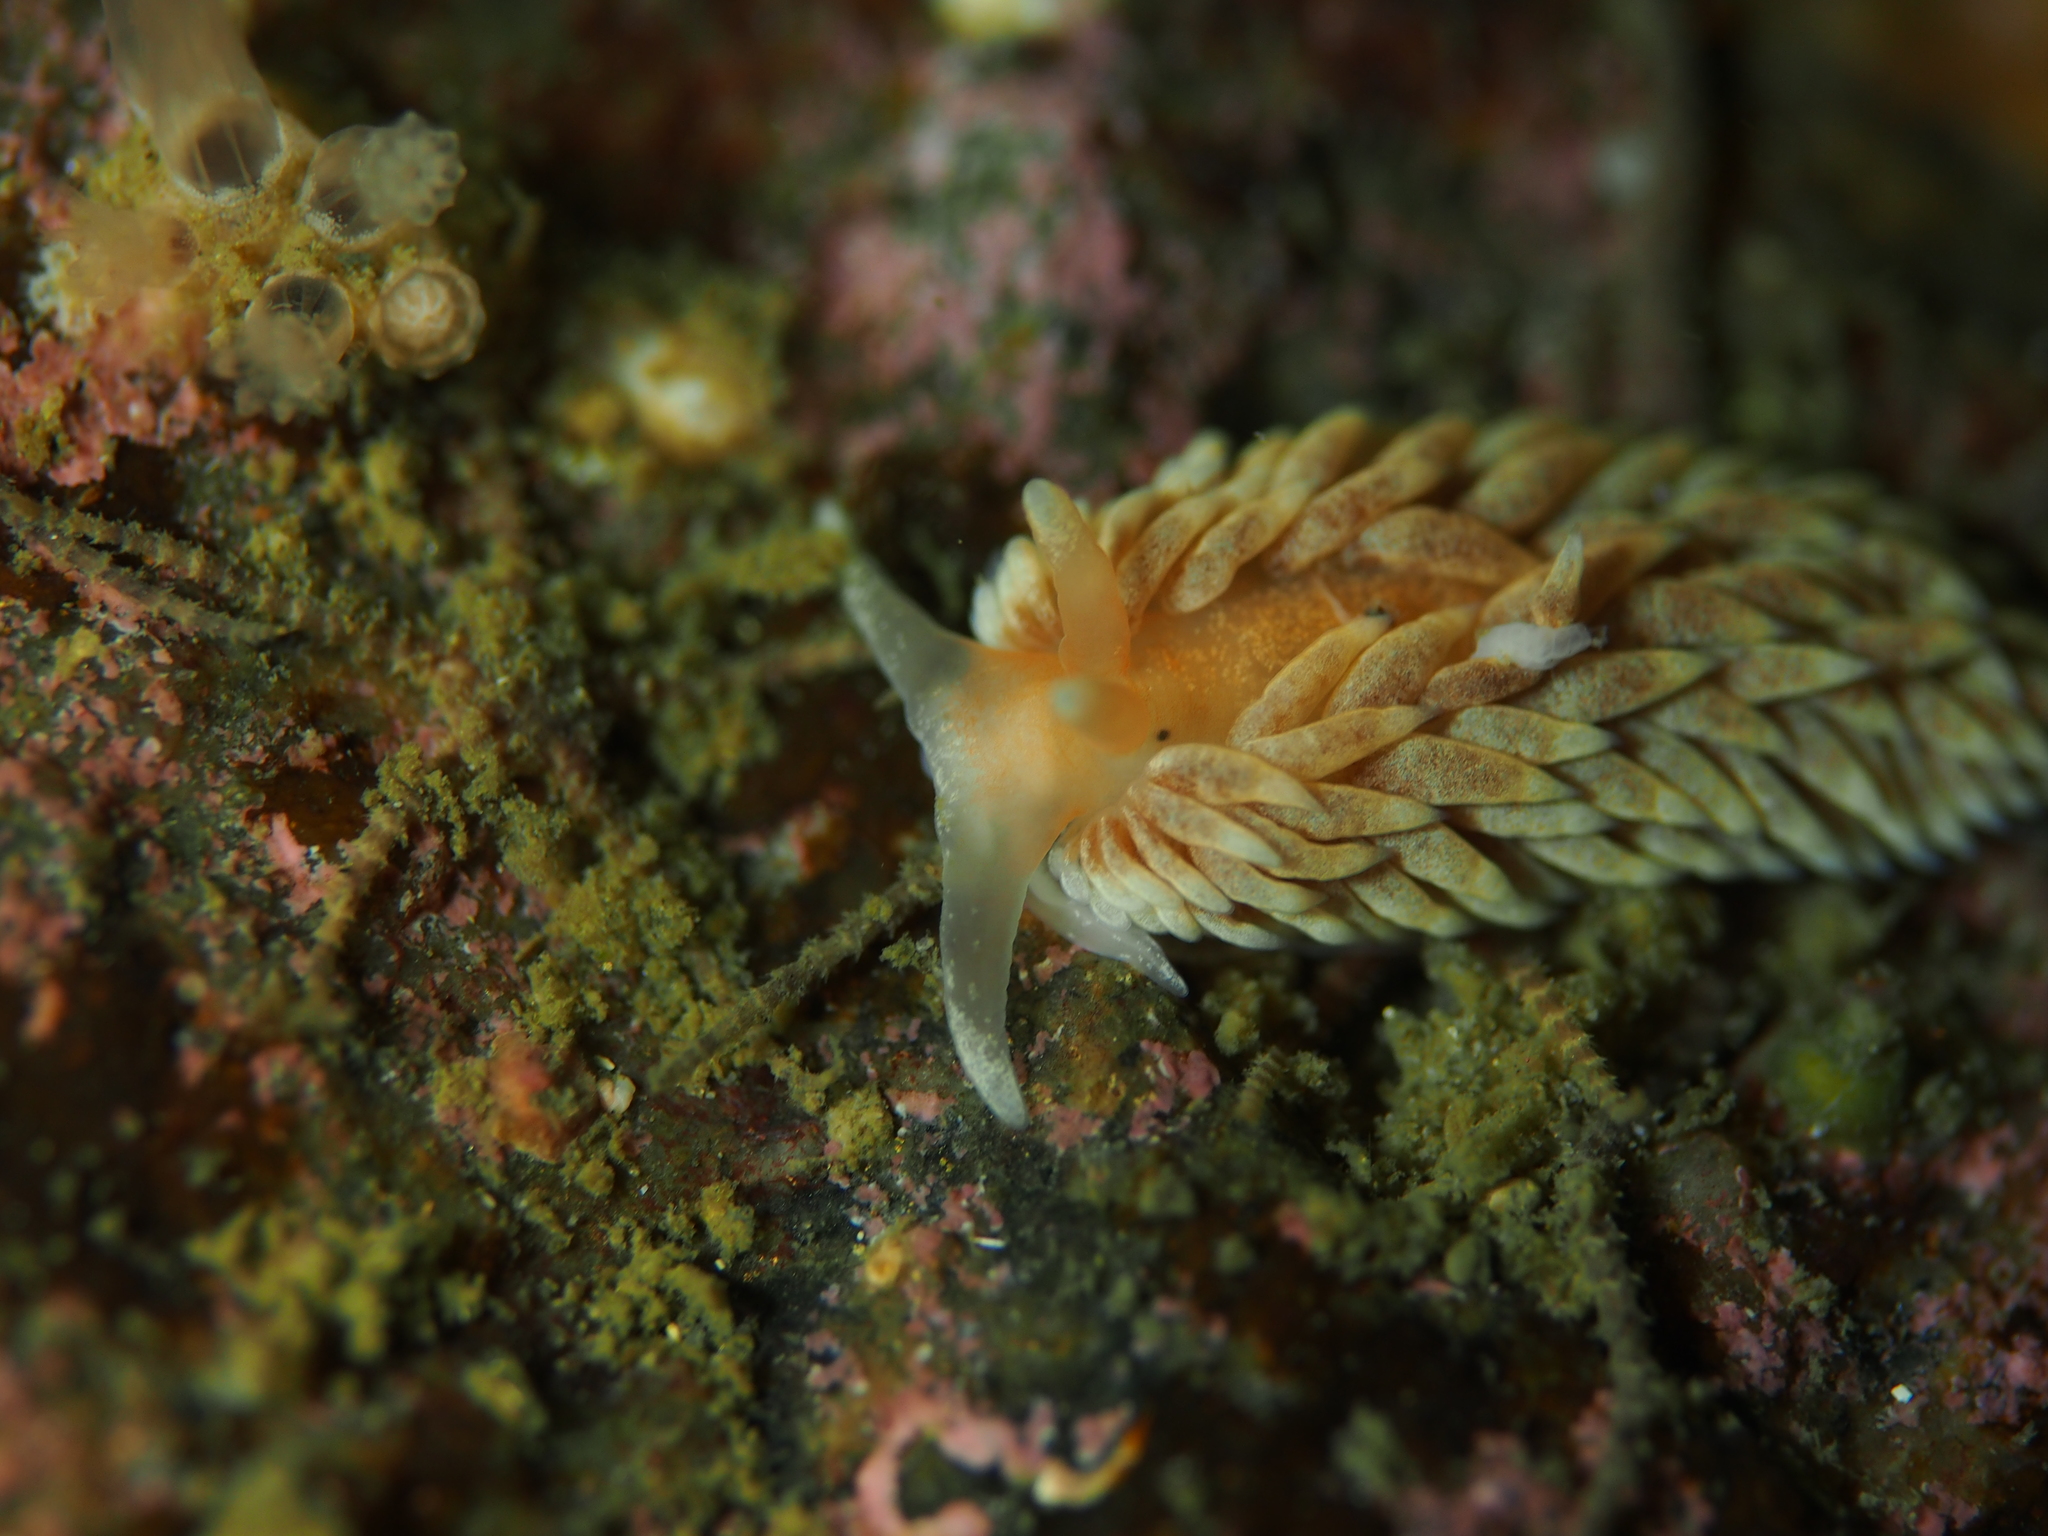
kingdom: Animalia
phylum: Mollusca
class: Gastropoda
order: Nudibranchia
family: Aeolidiidae
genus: Aeolidiella
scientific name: Aeolidiella glauca
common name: Orange-brown aeolid
